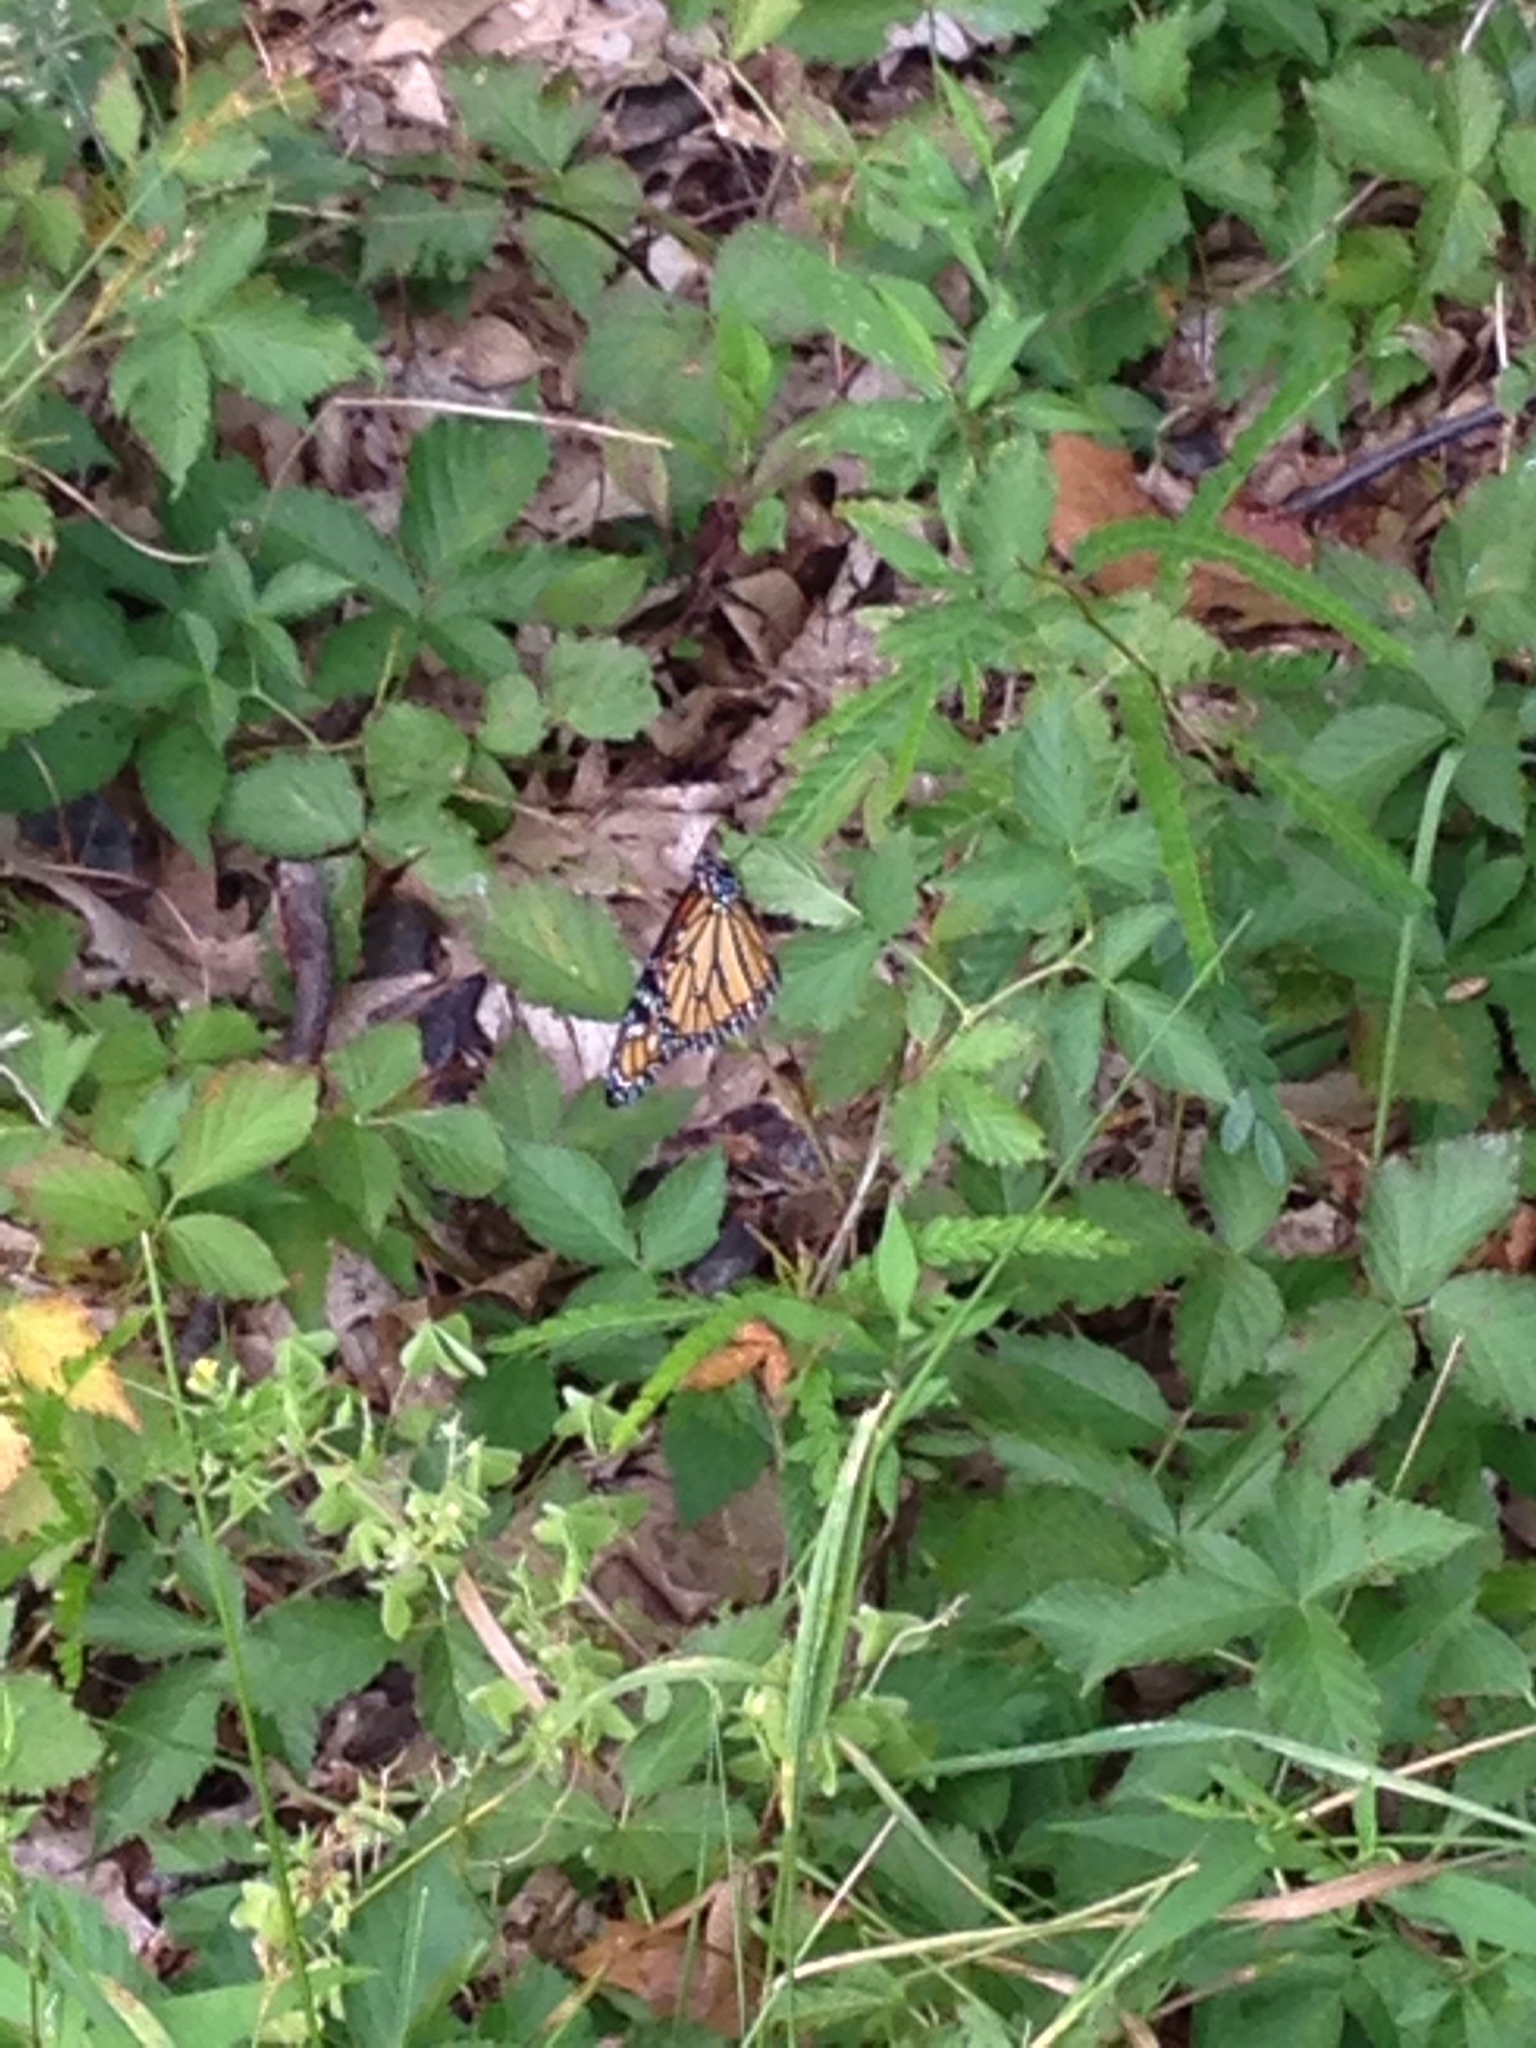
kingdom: Animalia
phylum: Arthropoda
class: Insecta
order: Lepidoptera
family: Nymphalidae
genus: Danaus
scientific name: Danaus plexippus
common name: Monarch
